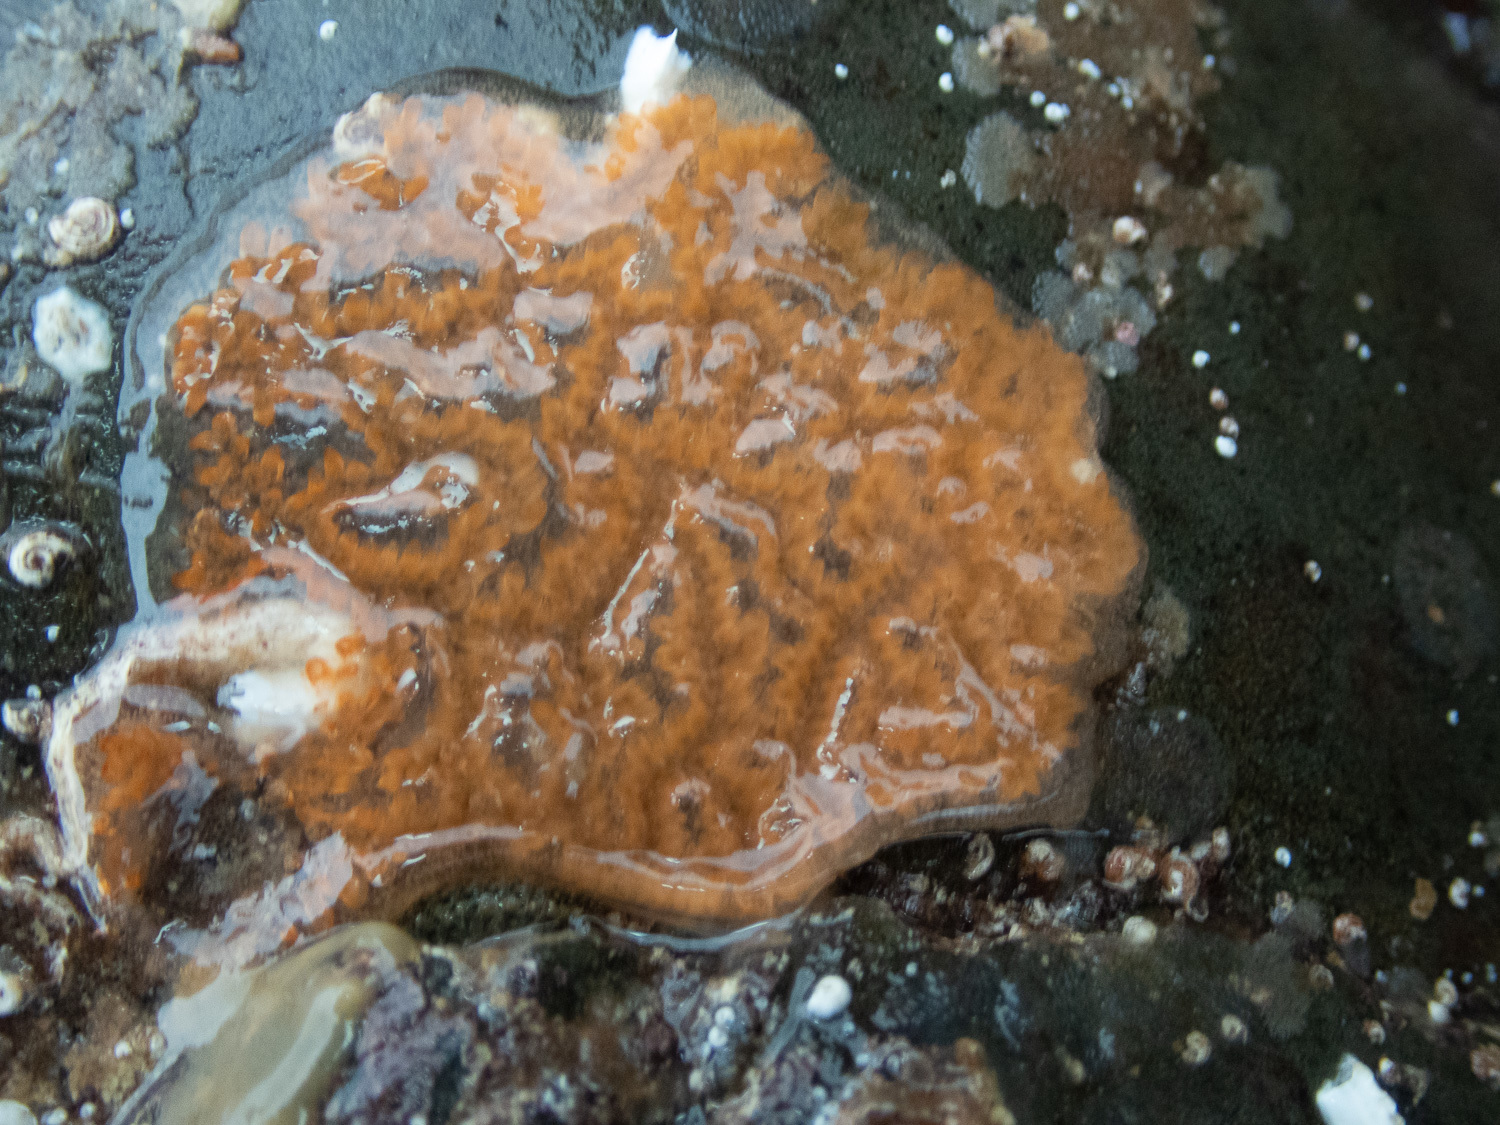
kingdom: Animalia
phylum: Chordata
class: Ascidiacea
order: Stolidobranchia
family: Styelidae
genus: Botrylloides
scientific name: Botrylloides leachii
